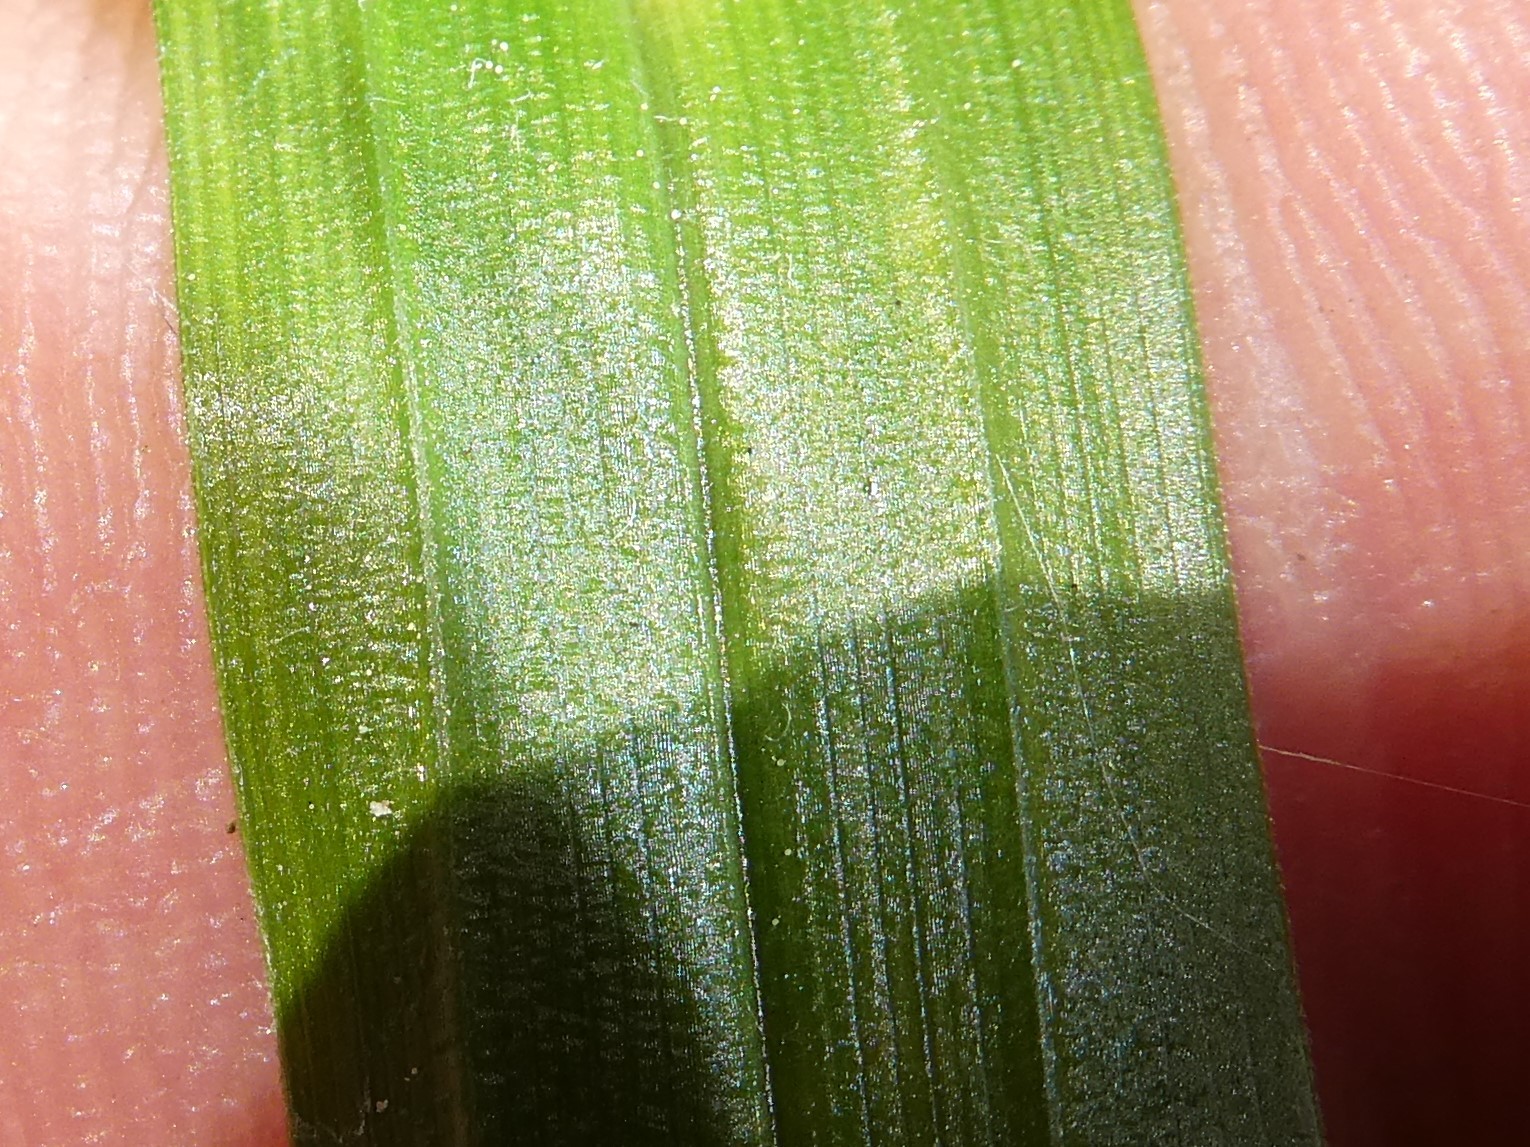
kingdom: Plantae
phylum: Tracheophyta
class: Liliopsida
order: Poales
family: Cyperaceae
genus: Carex
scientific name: Carex scabrata
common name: Eastern rough sedge
